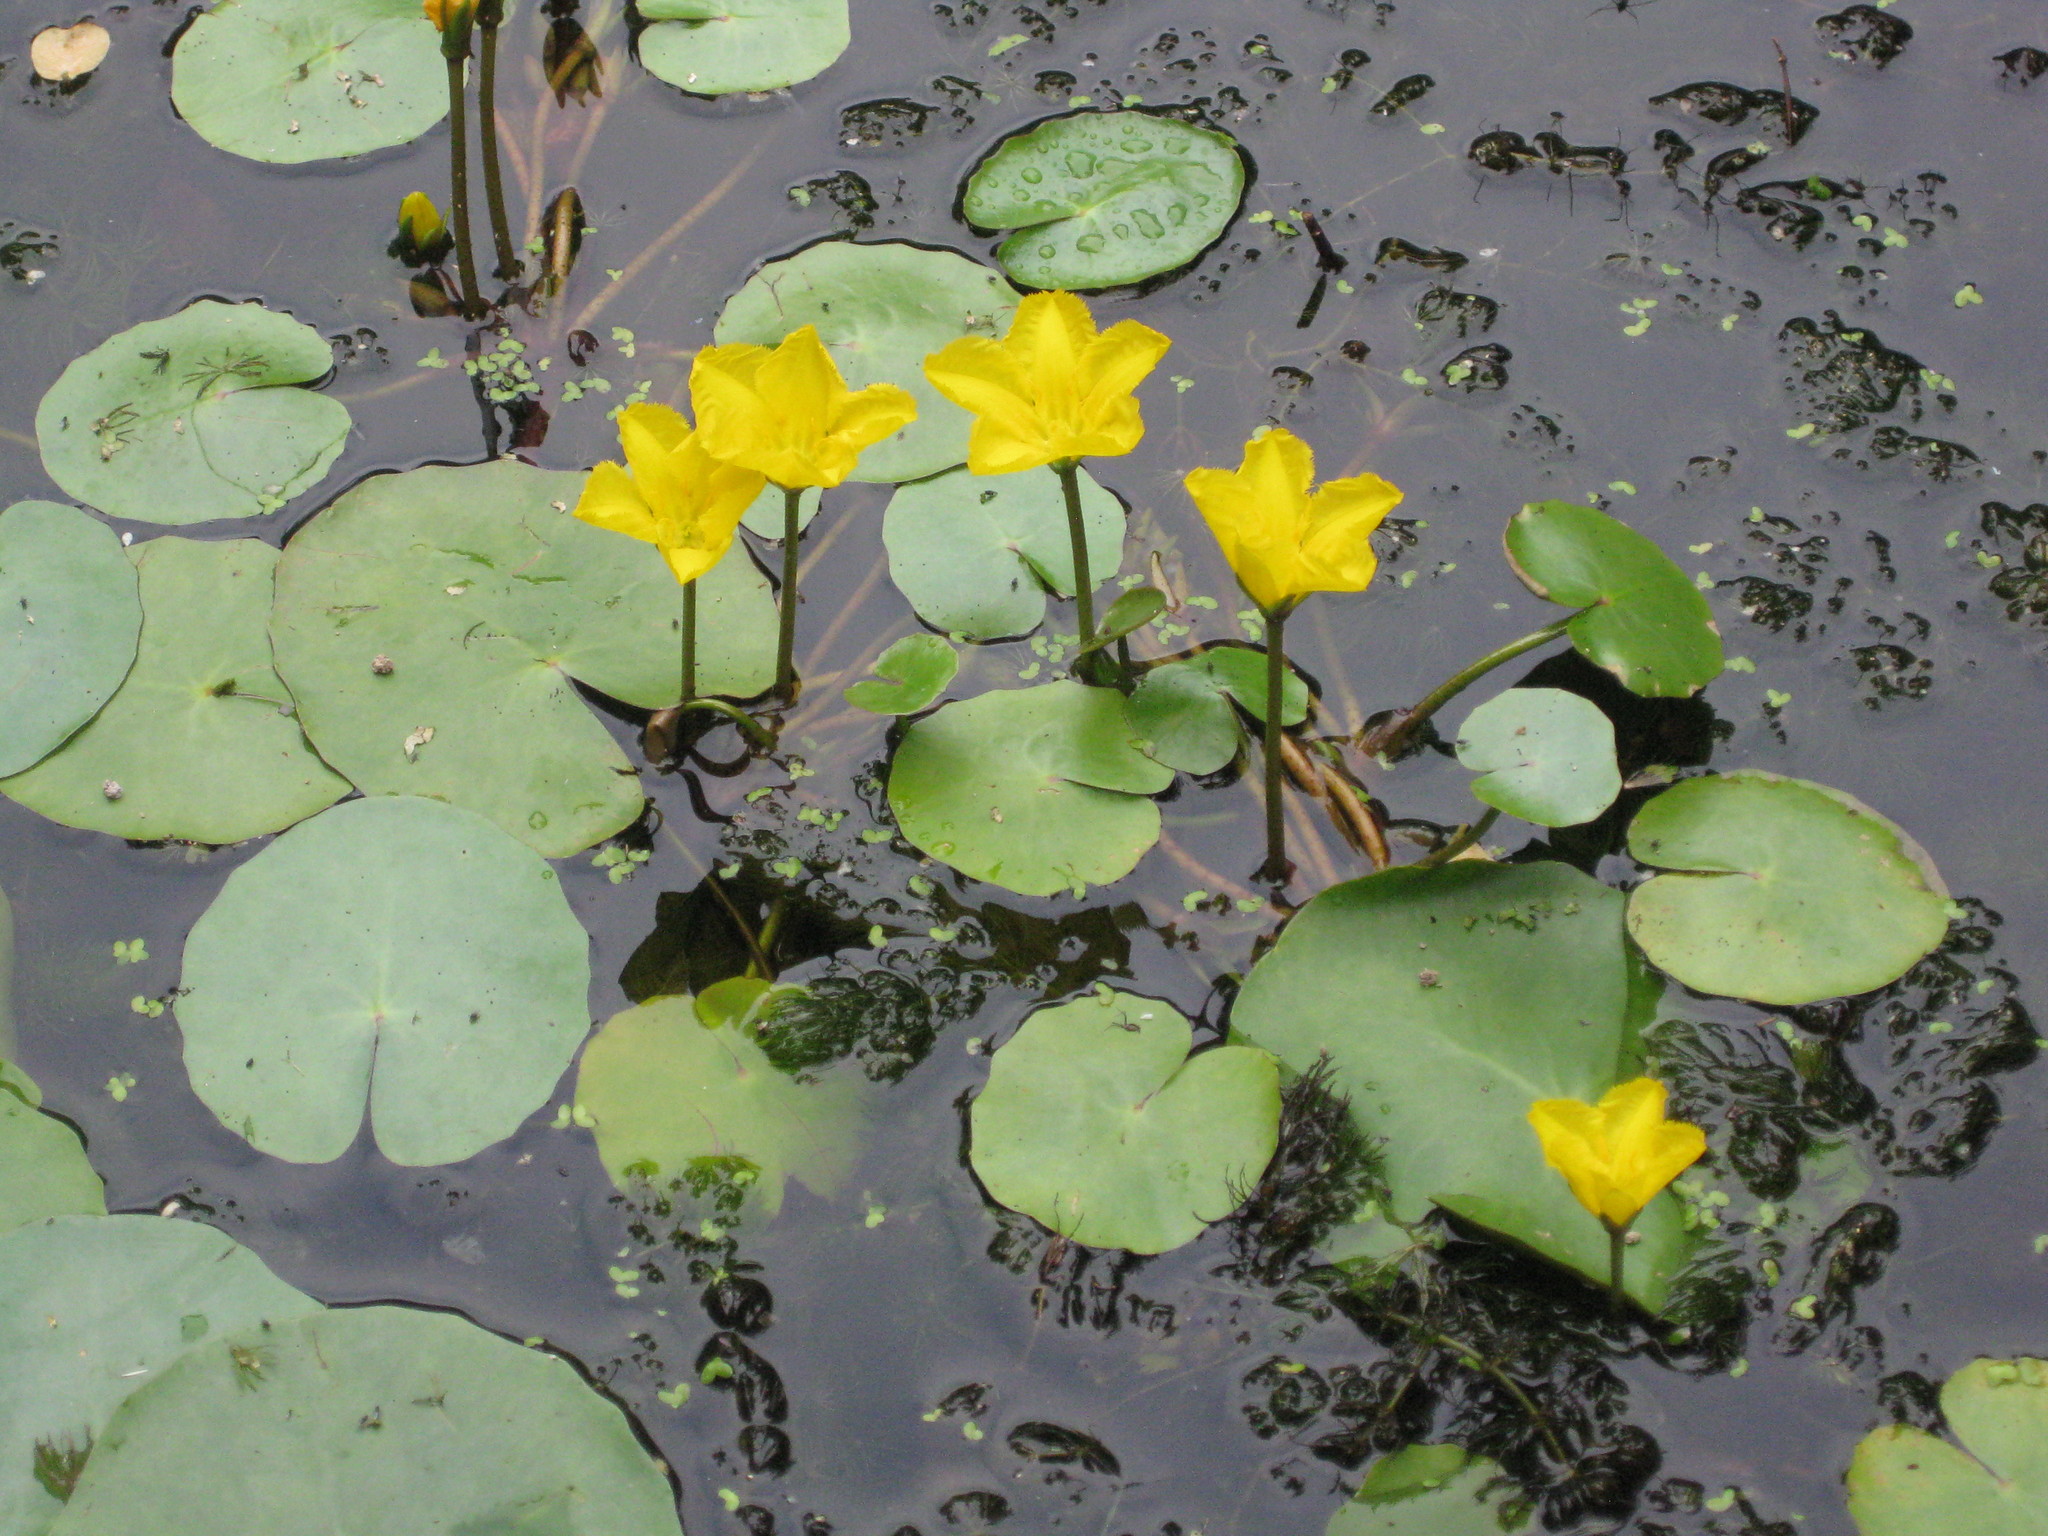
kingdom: Plantae
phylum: Tracheophyta
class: Magnoliopsida
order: Asterales
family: Menyanthaceae
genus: Nymphoides
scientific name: Nymphoides peltata
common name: Fringed water-lily
